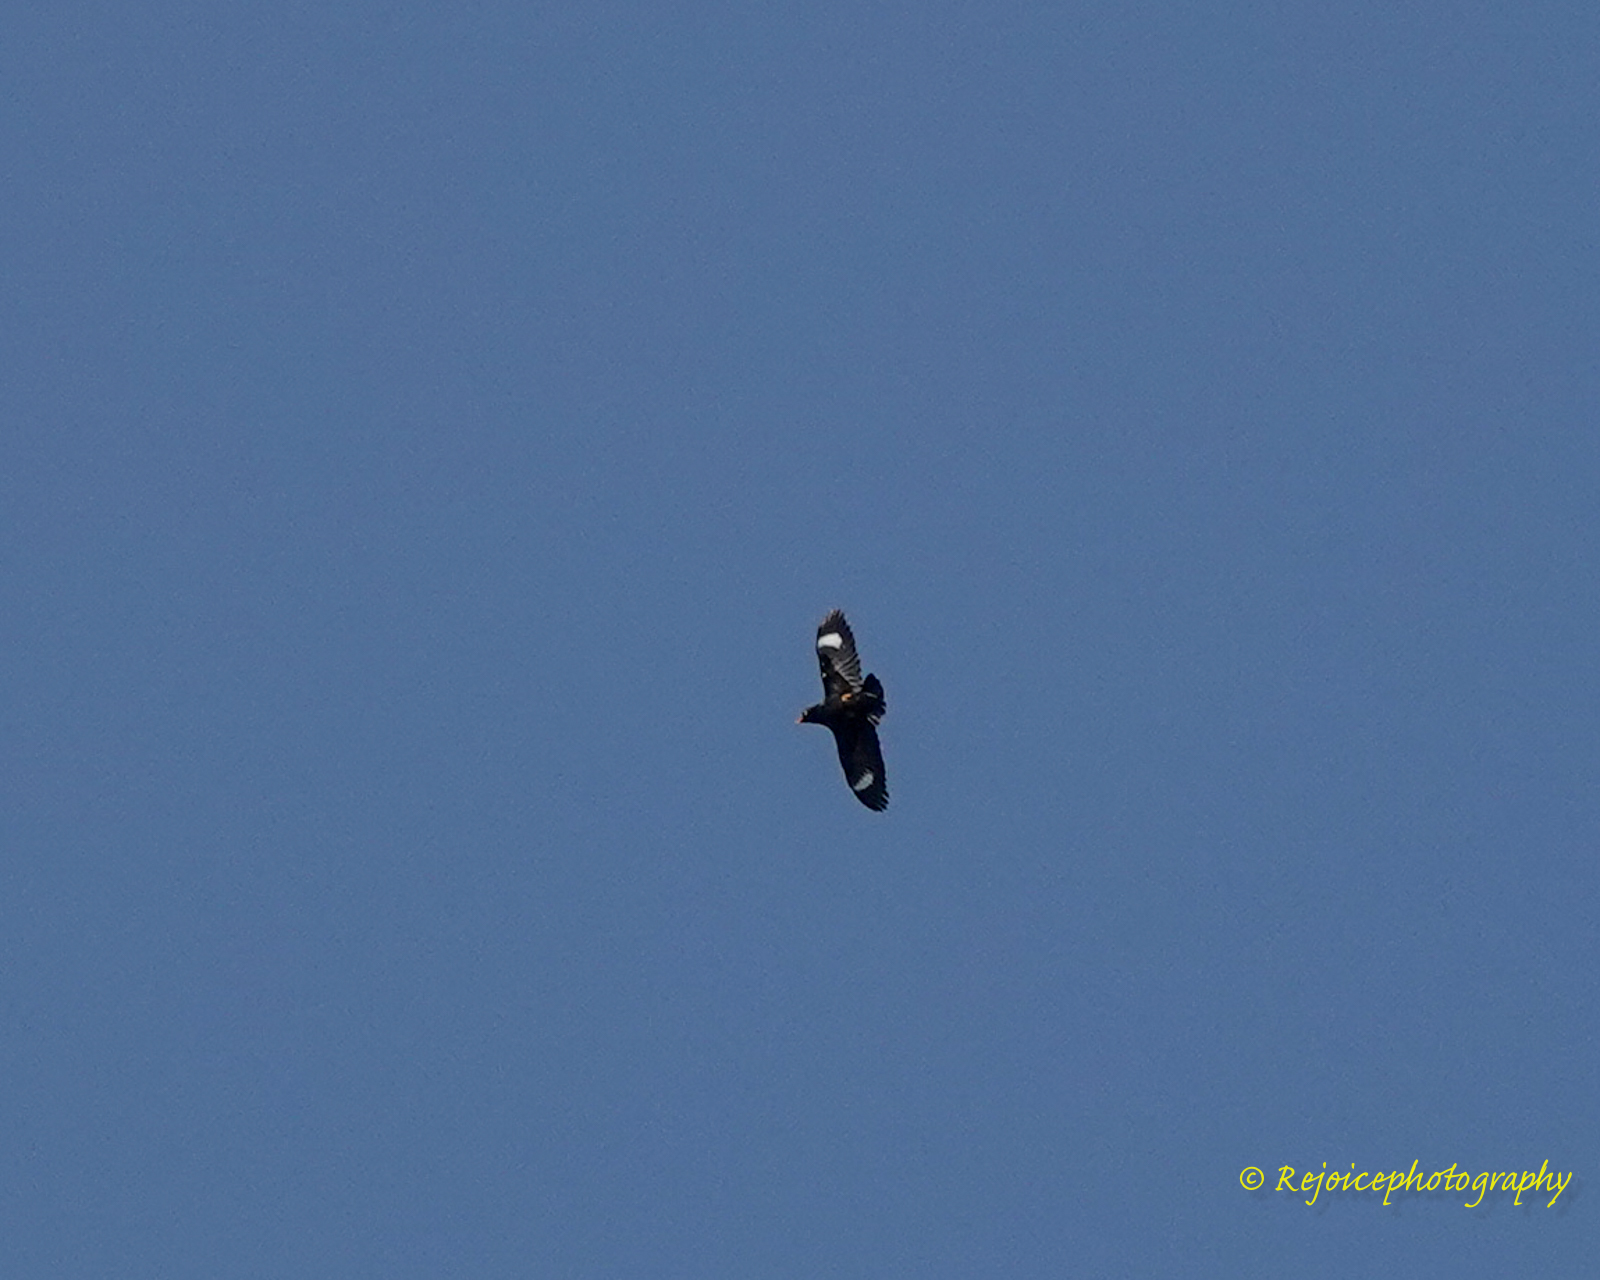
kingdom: Animalia
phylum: Chordata
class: Aves
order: Passeriformes
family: Sturnidae
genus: Gracula
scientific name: Gracula religiosa
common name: Common hill myna
